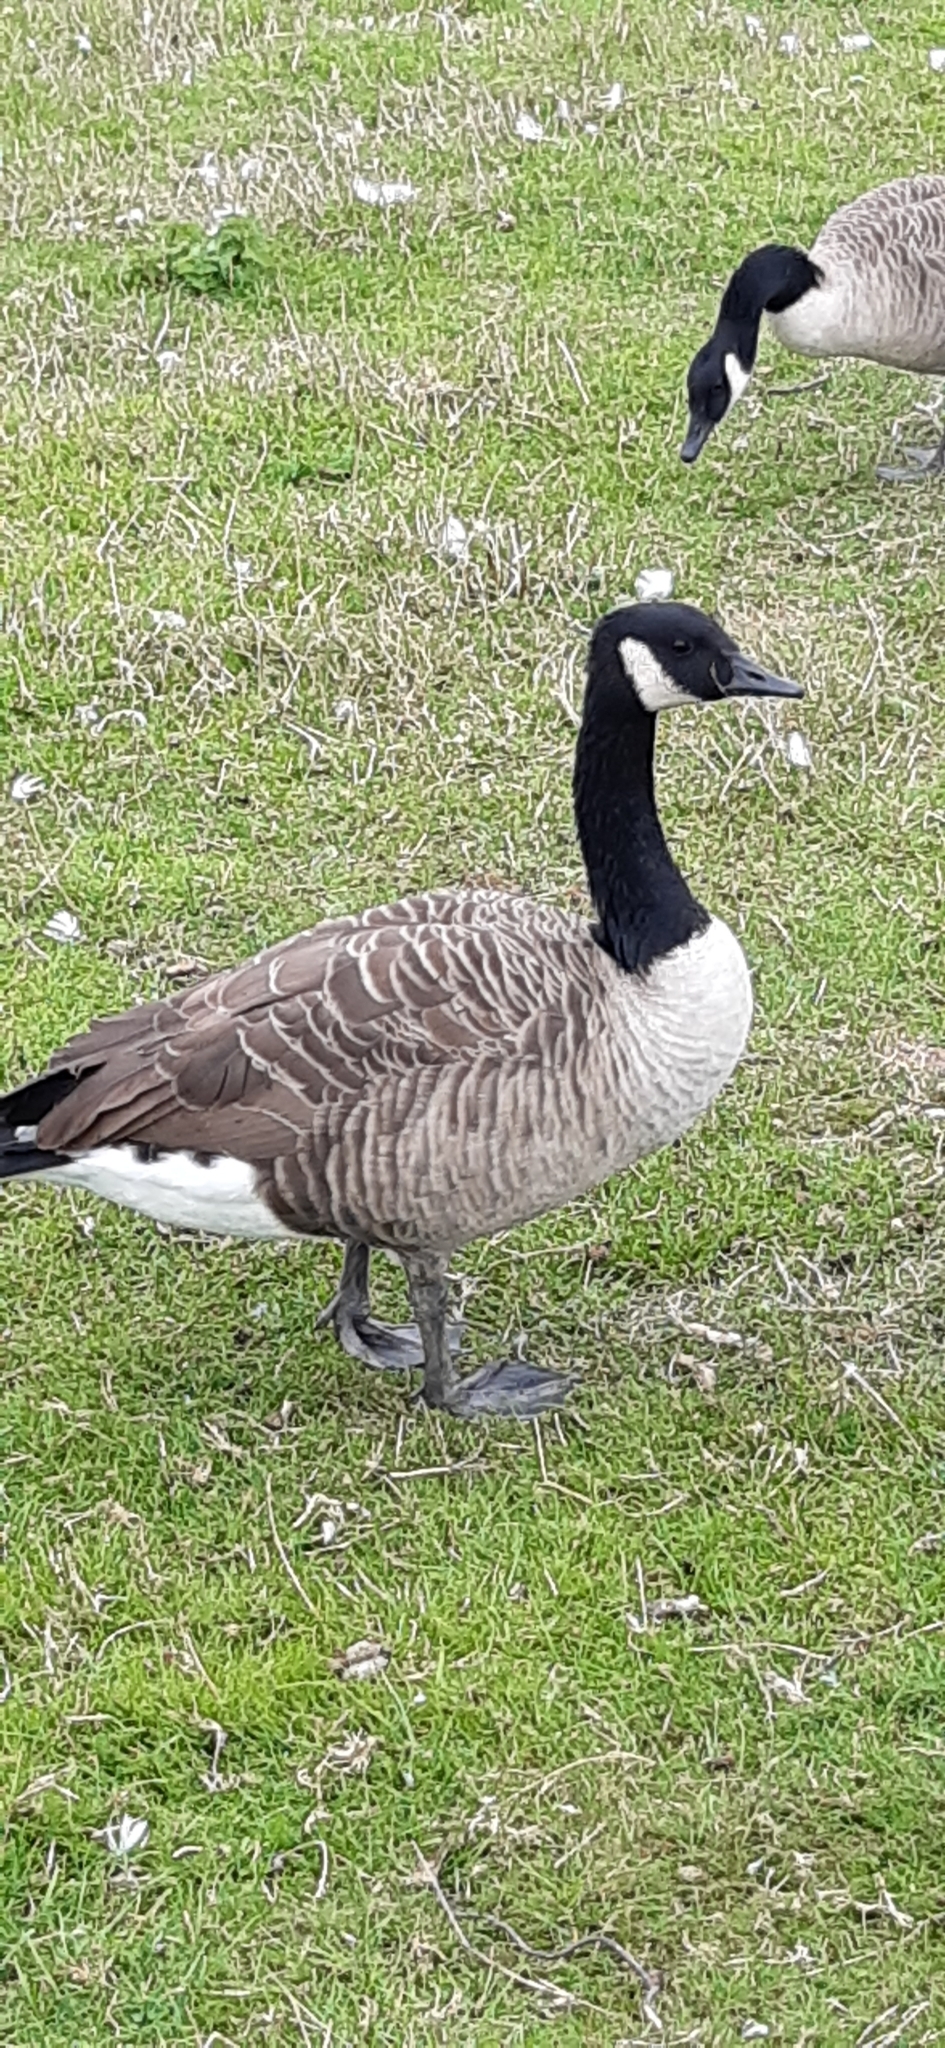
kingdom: Animalia
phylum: Chordata
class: Aves
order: Anseriformes
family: Anatidae
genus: Branta
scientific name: Branta canadensis
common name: Canada goose
